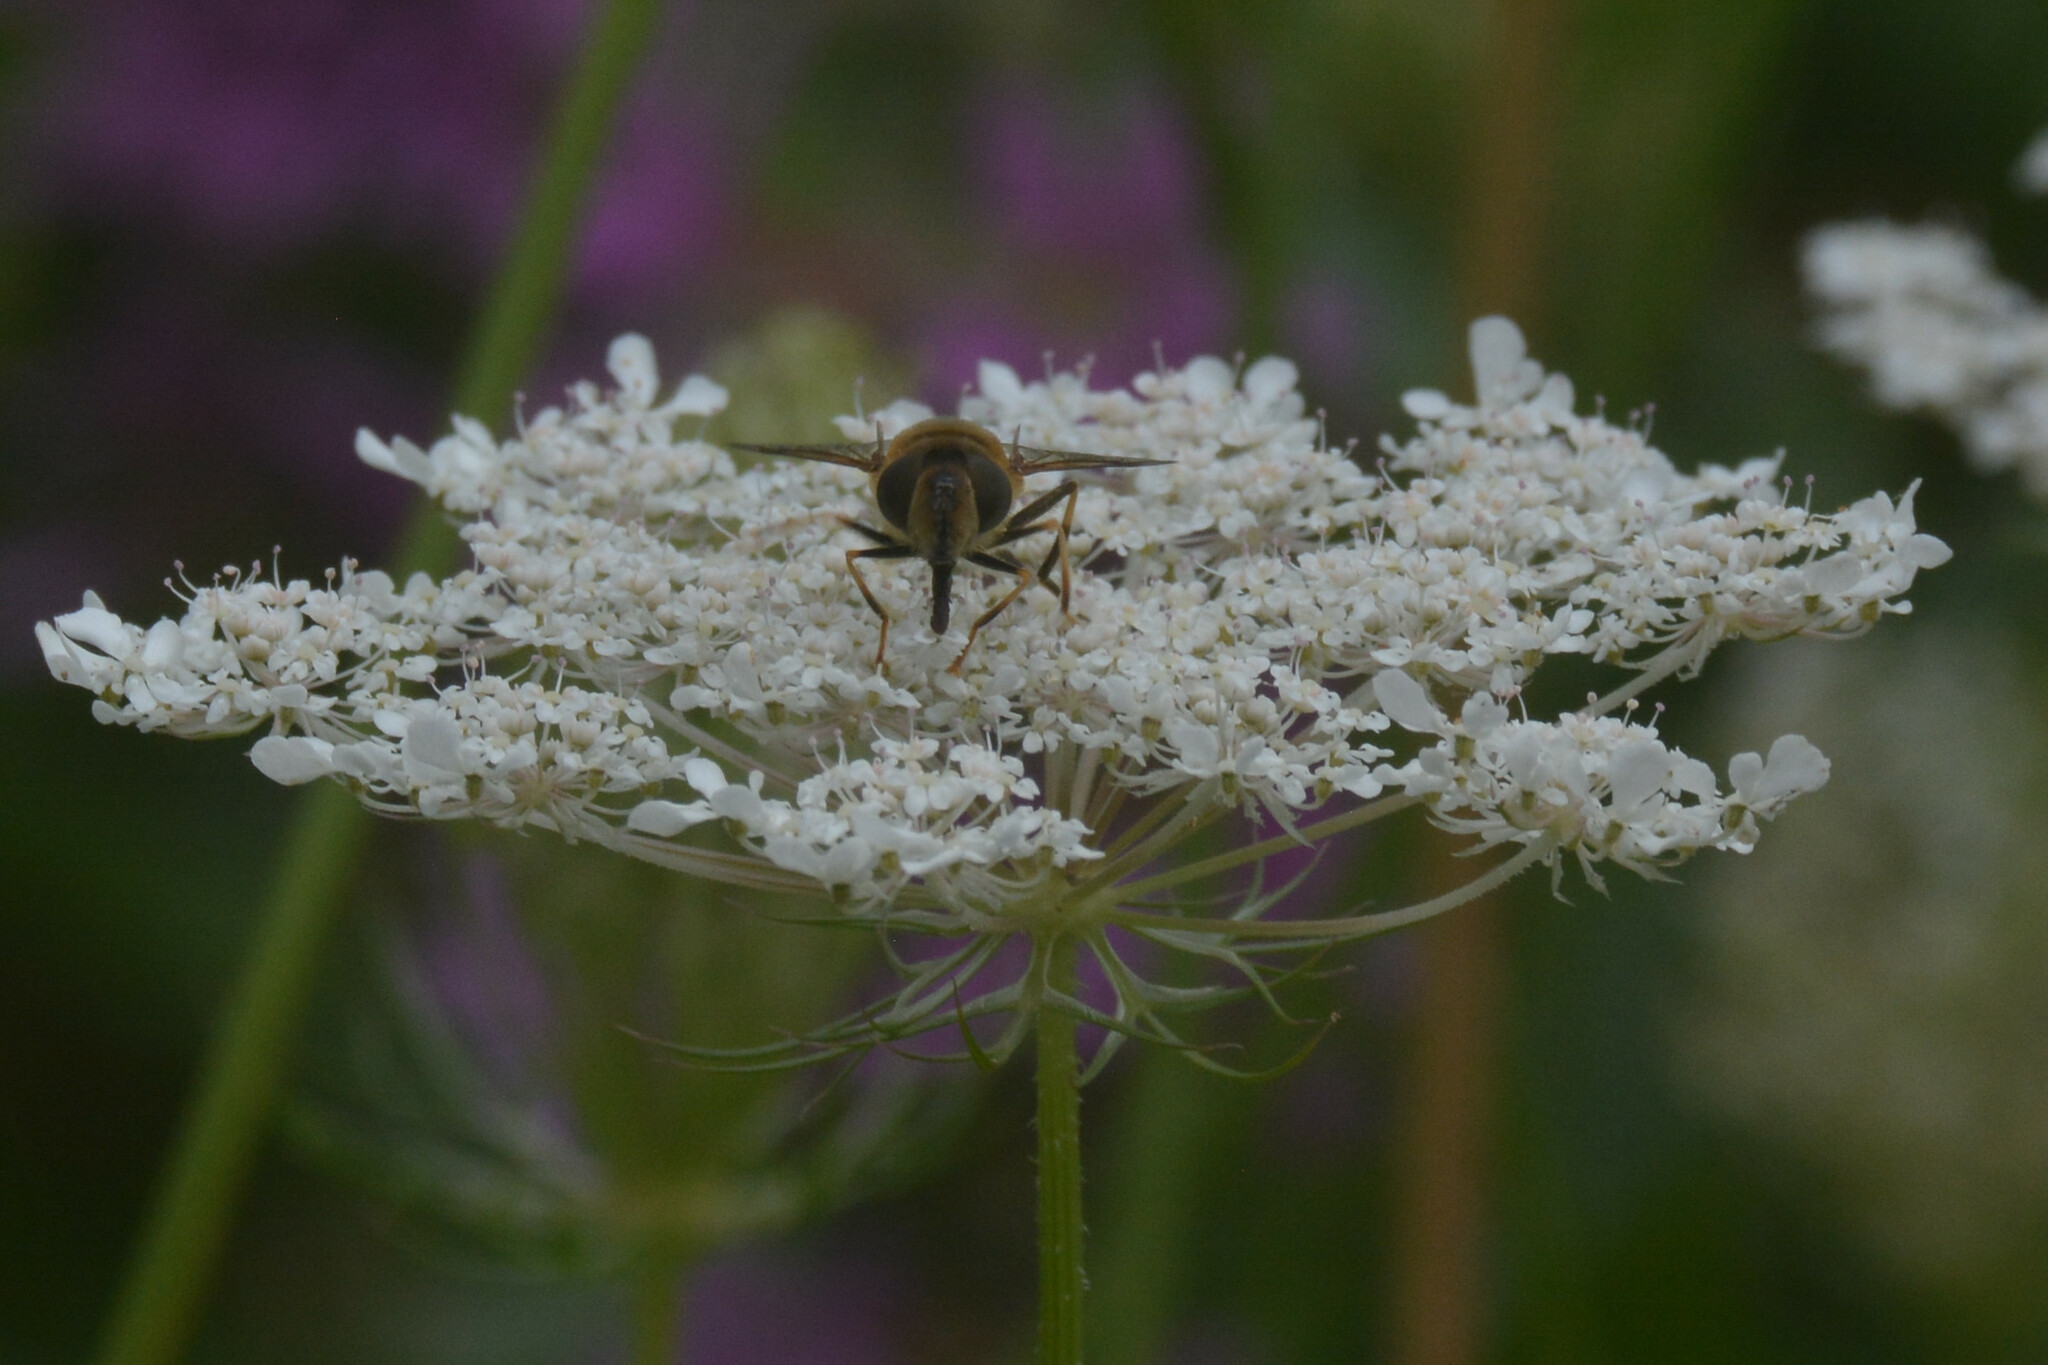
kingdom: Animalia
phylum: Arthropoda
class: Insecta
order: Diptera
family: Syrphidae
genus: Eristalis
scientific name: Eristalis pertinax
